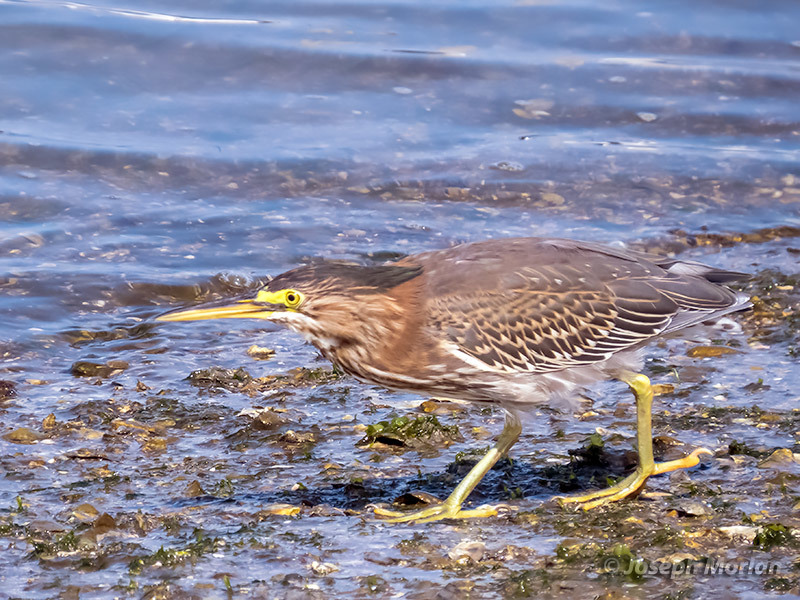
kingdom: Animalia
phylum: Chordata
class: Aves
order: Pelecaniformes
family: Ardeidae
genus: Butorides
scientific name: Butorides virescens
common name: Green heron
